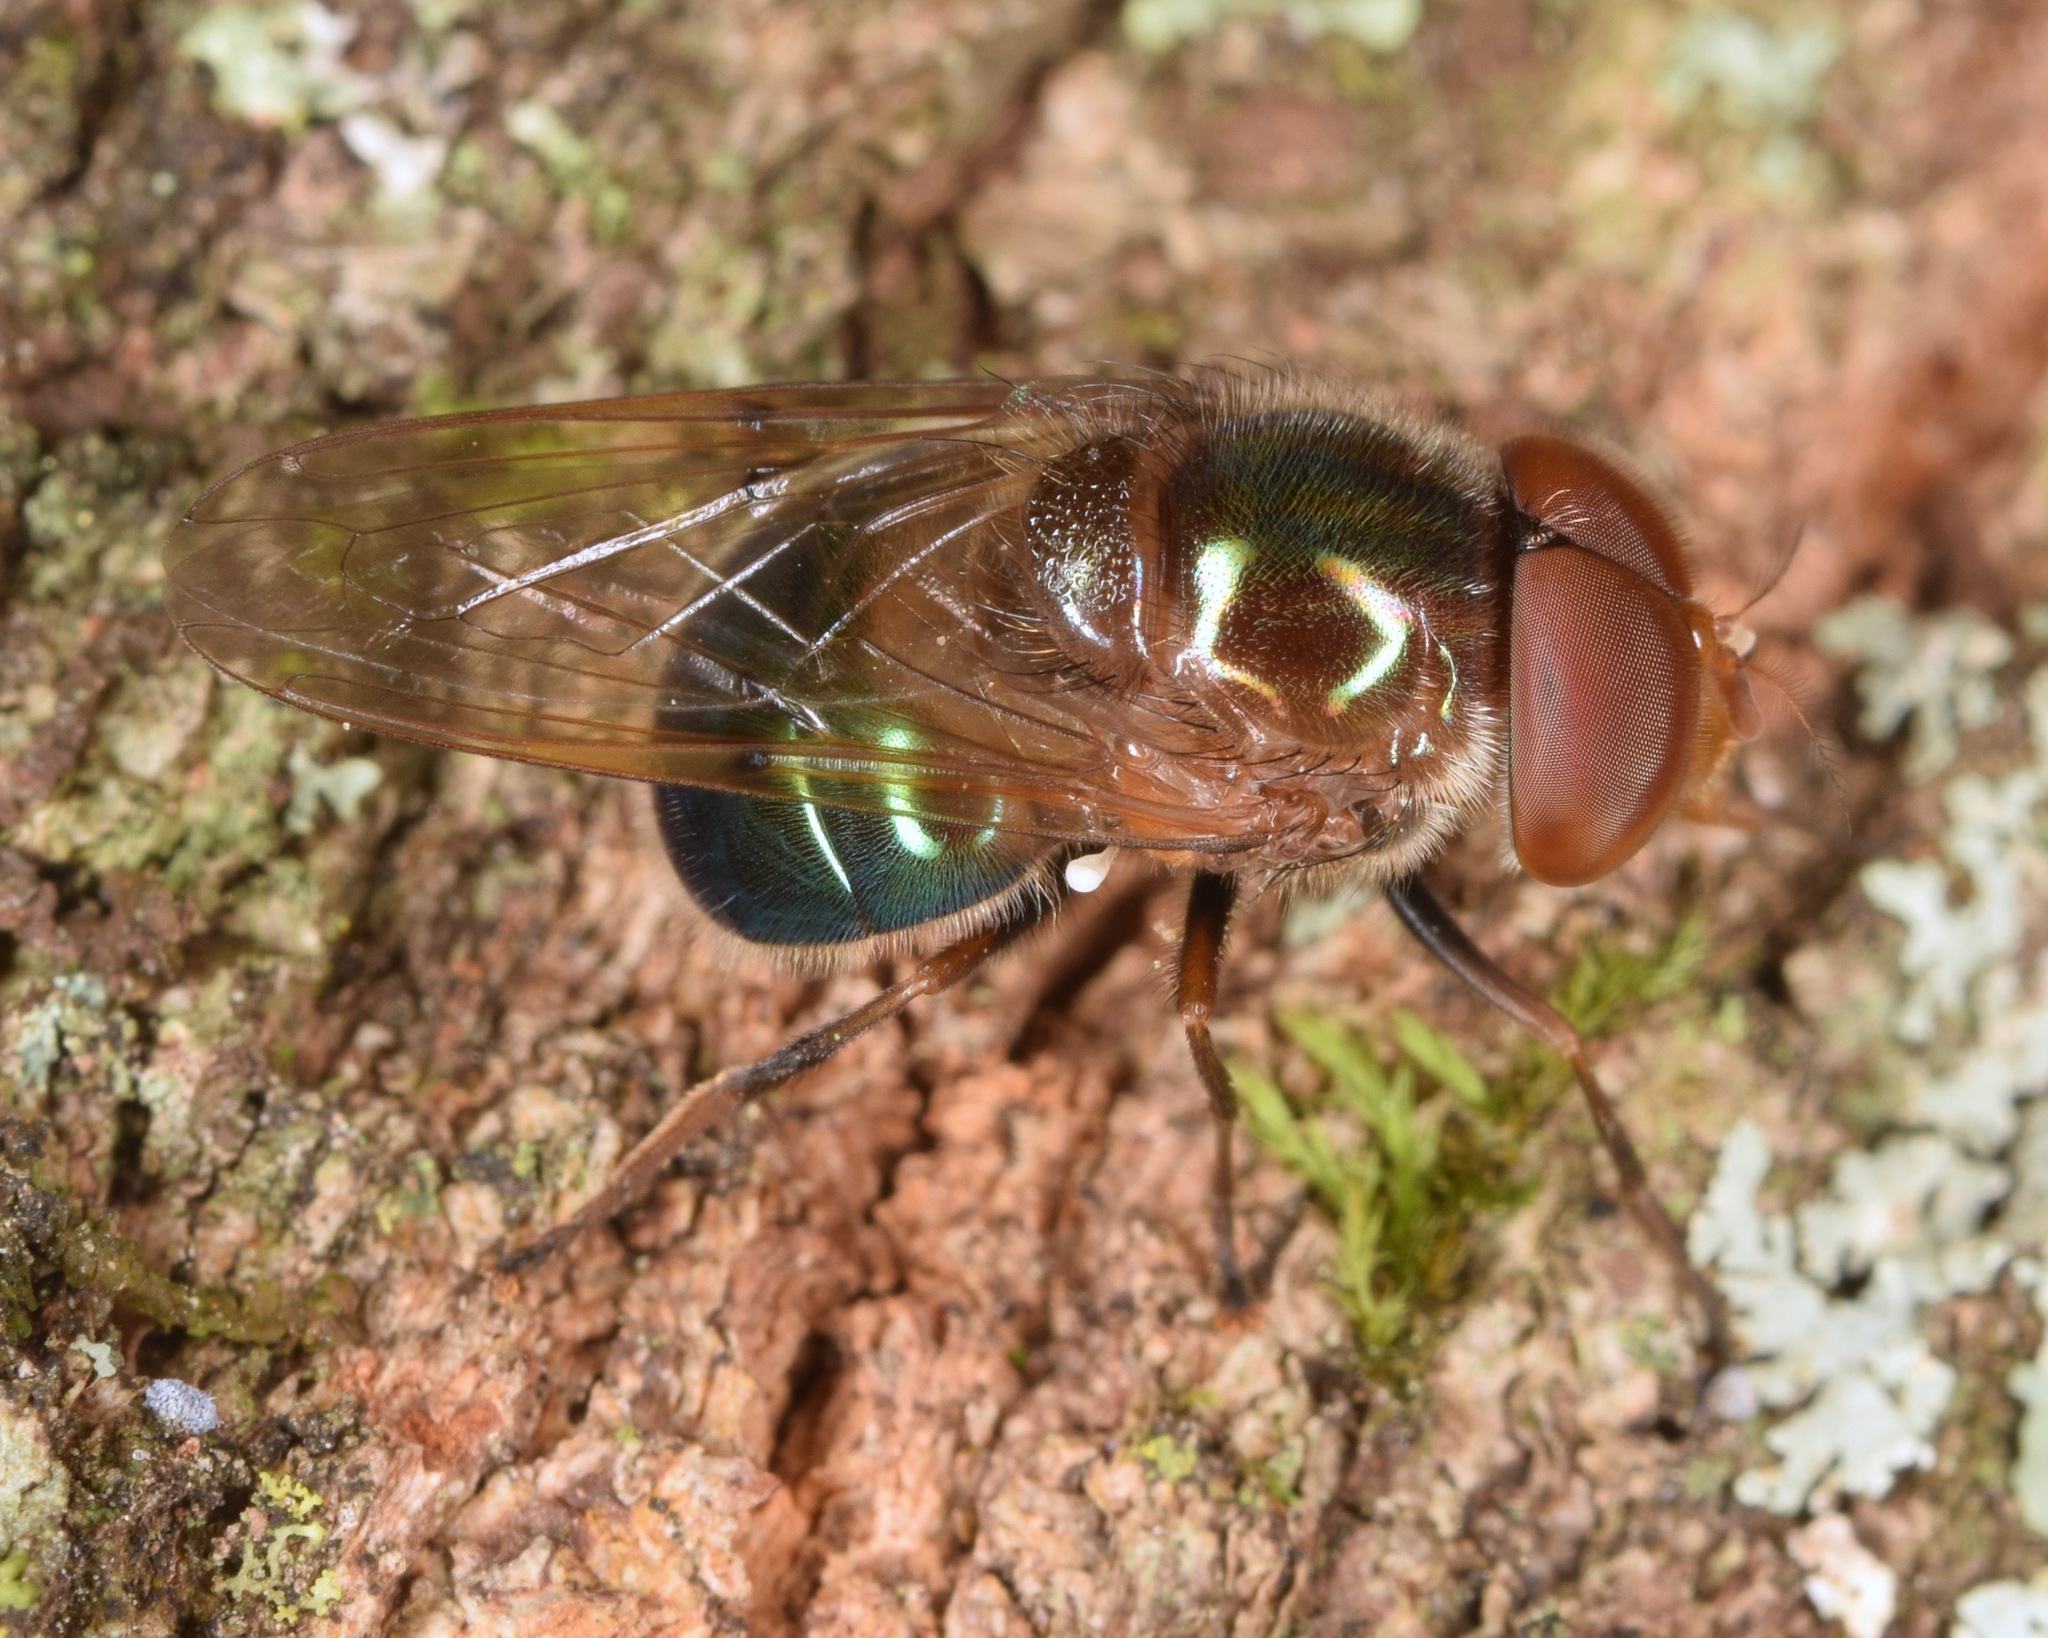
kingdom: Animalia
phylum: Arthropoda
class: Insecta
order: Diptera
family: Syrphidae
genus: Copestylum
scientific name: Copestylum vesicularium
